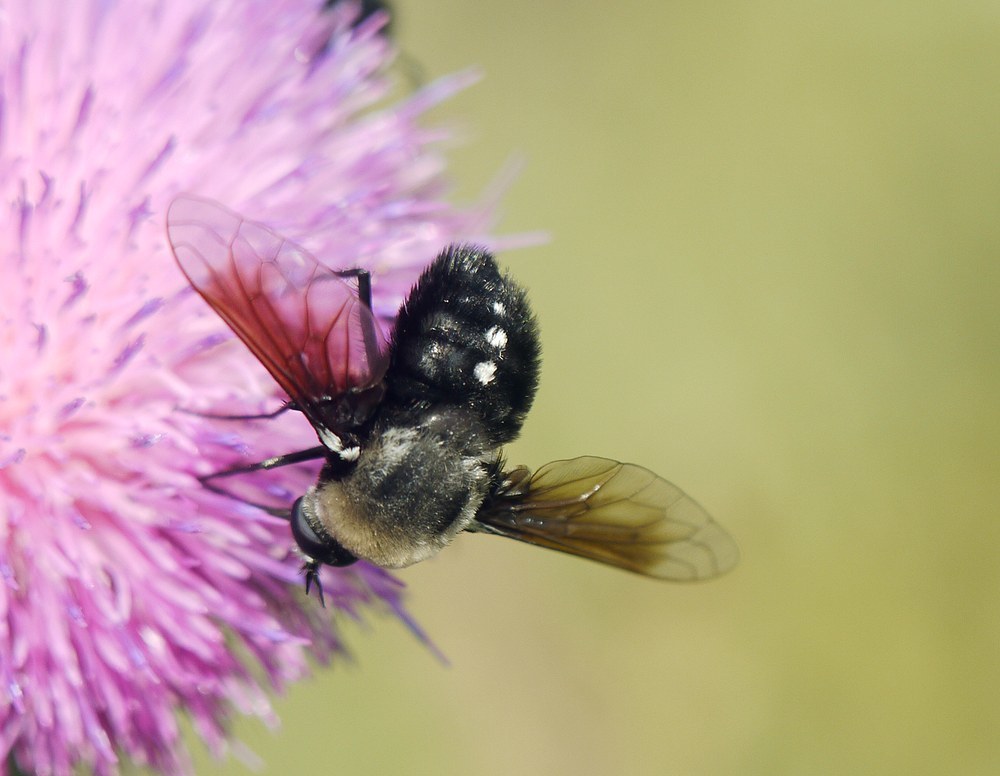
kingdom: Animalia
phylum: Arthropoda
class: Insecta
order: Diptera
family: Bombyliidae
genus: Bombomyia
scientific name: Bombomyia vertebralis
